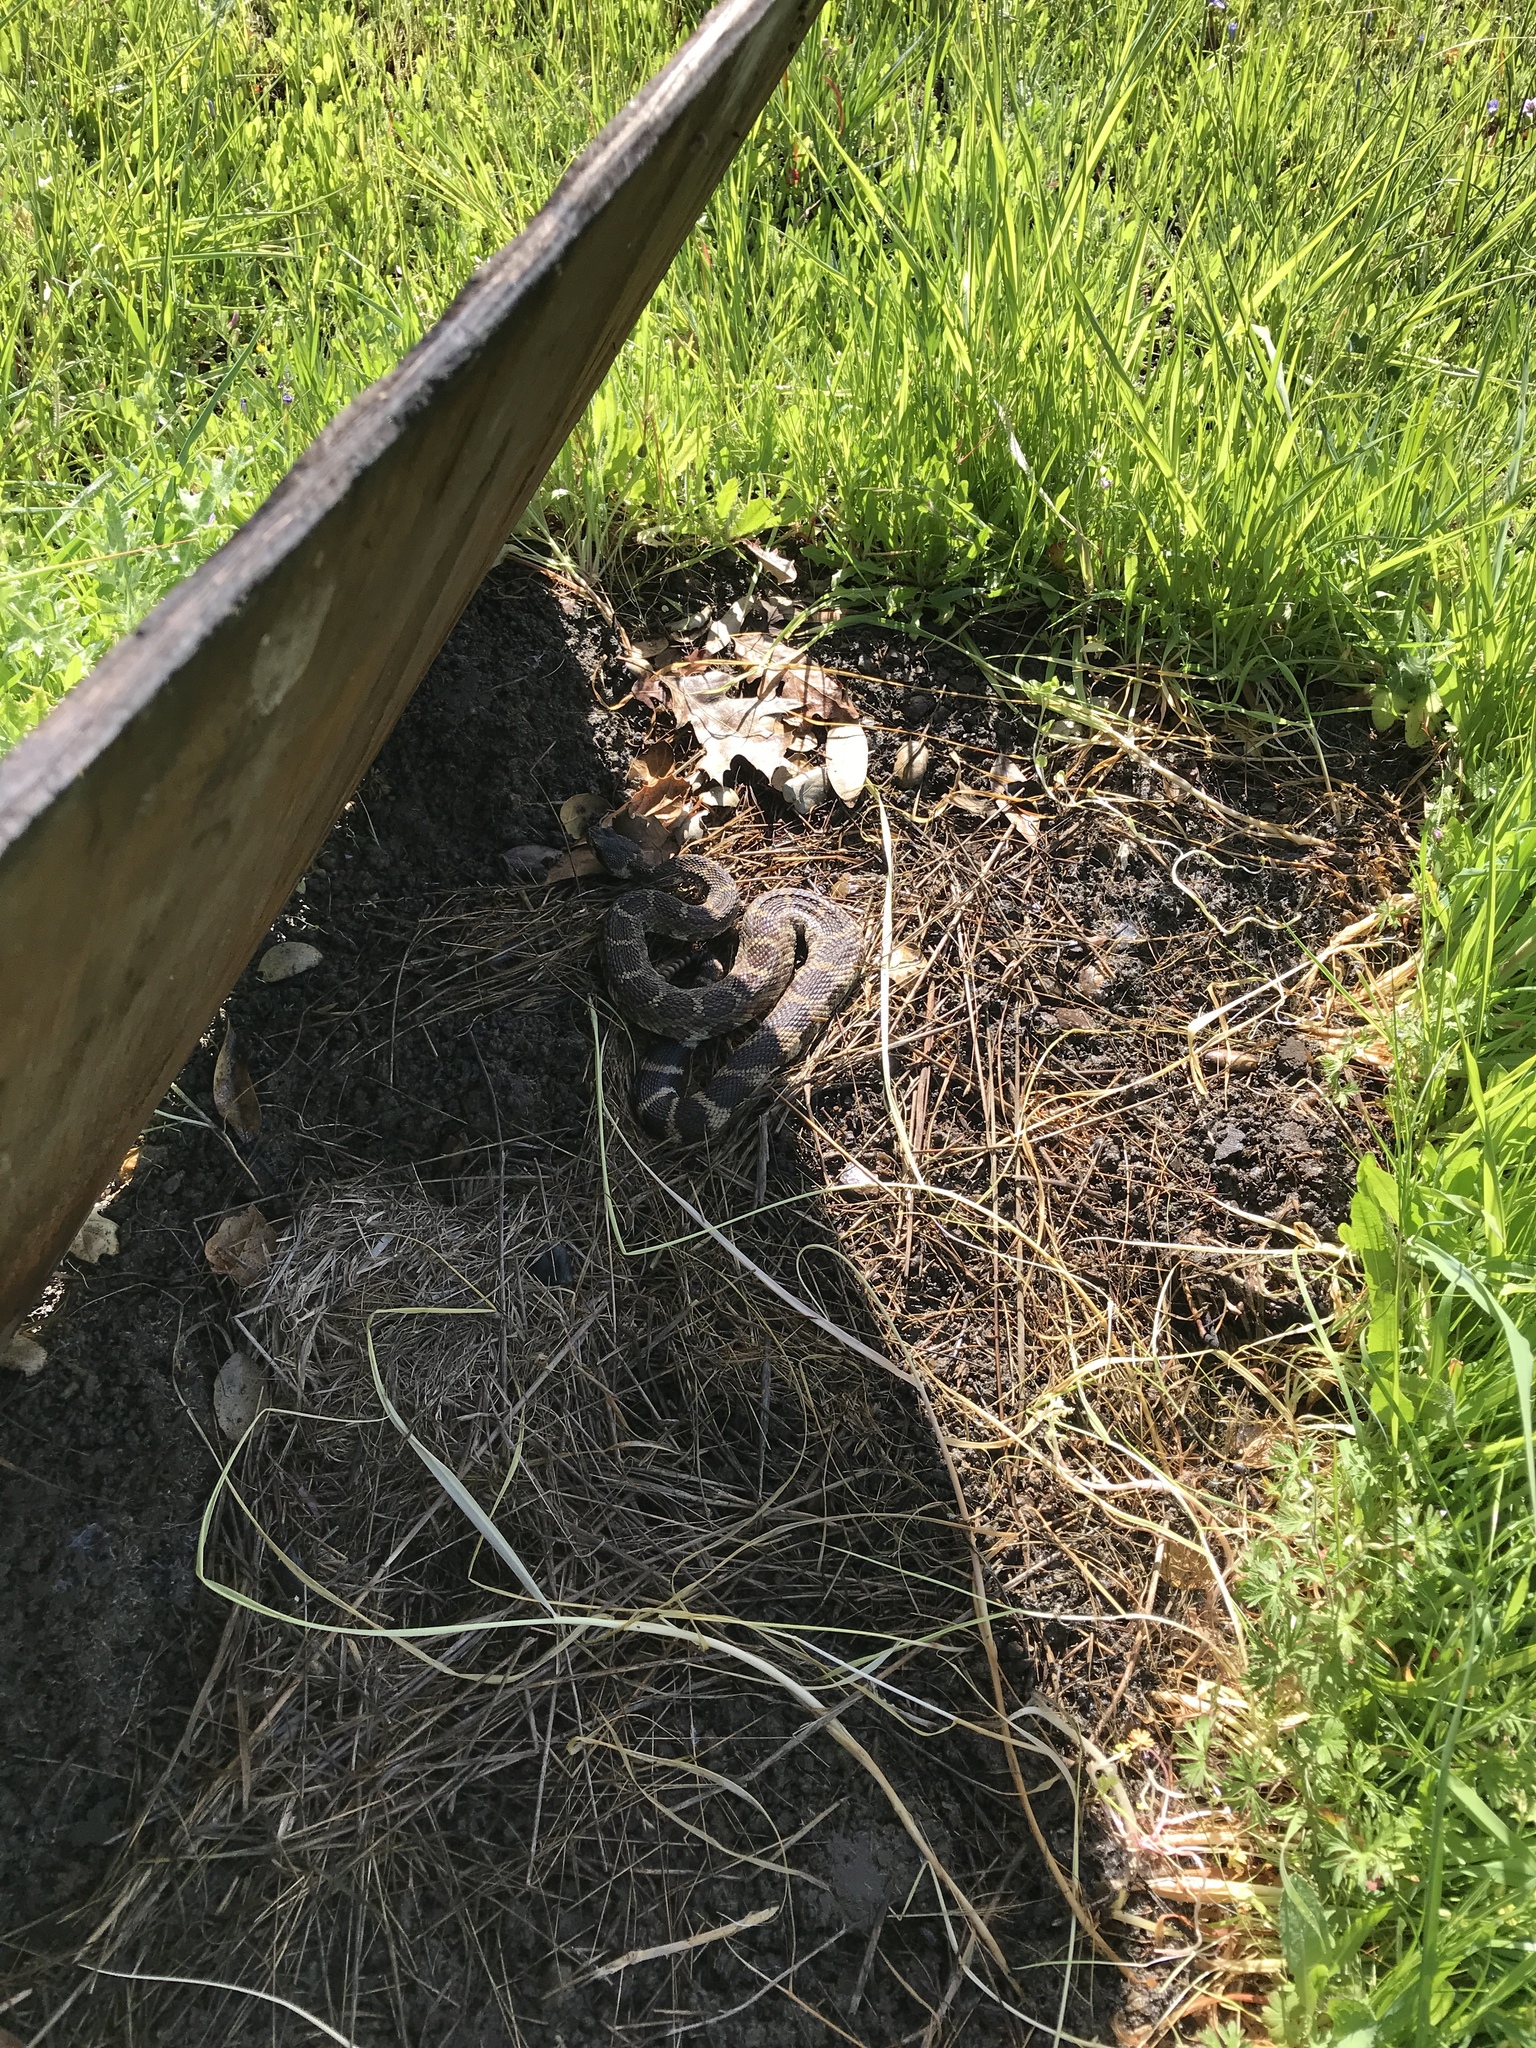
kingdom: Animalia
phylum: Chordata
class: Squamata
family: Viperidae
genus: Crotalus
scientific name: Crotalus oreganus
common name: Abyssus
